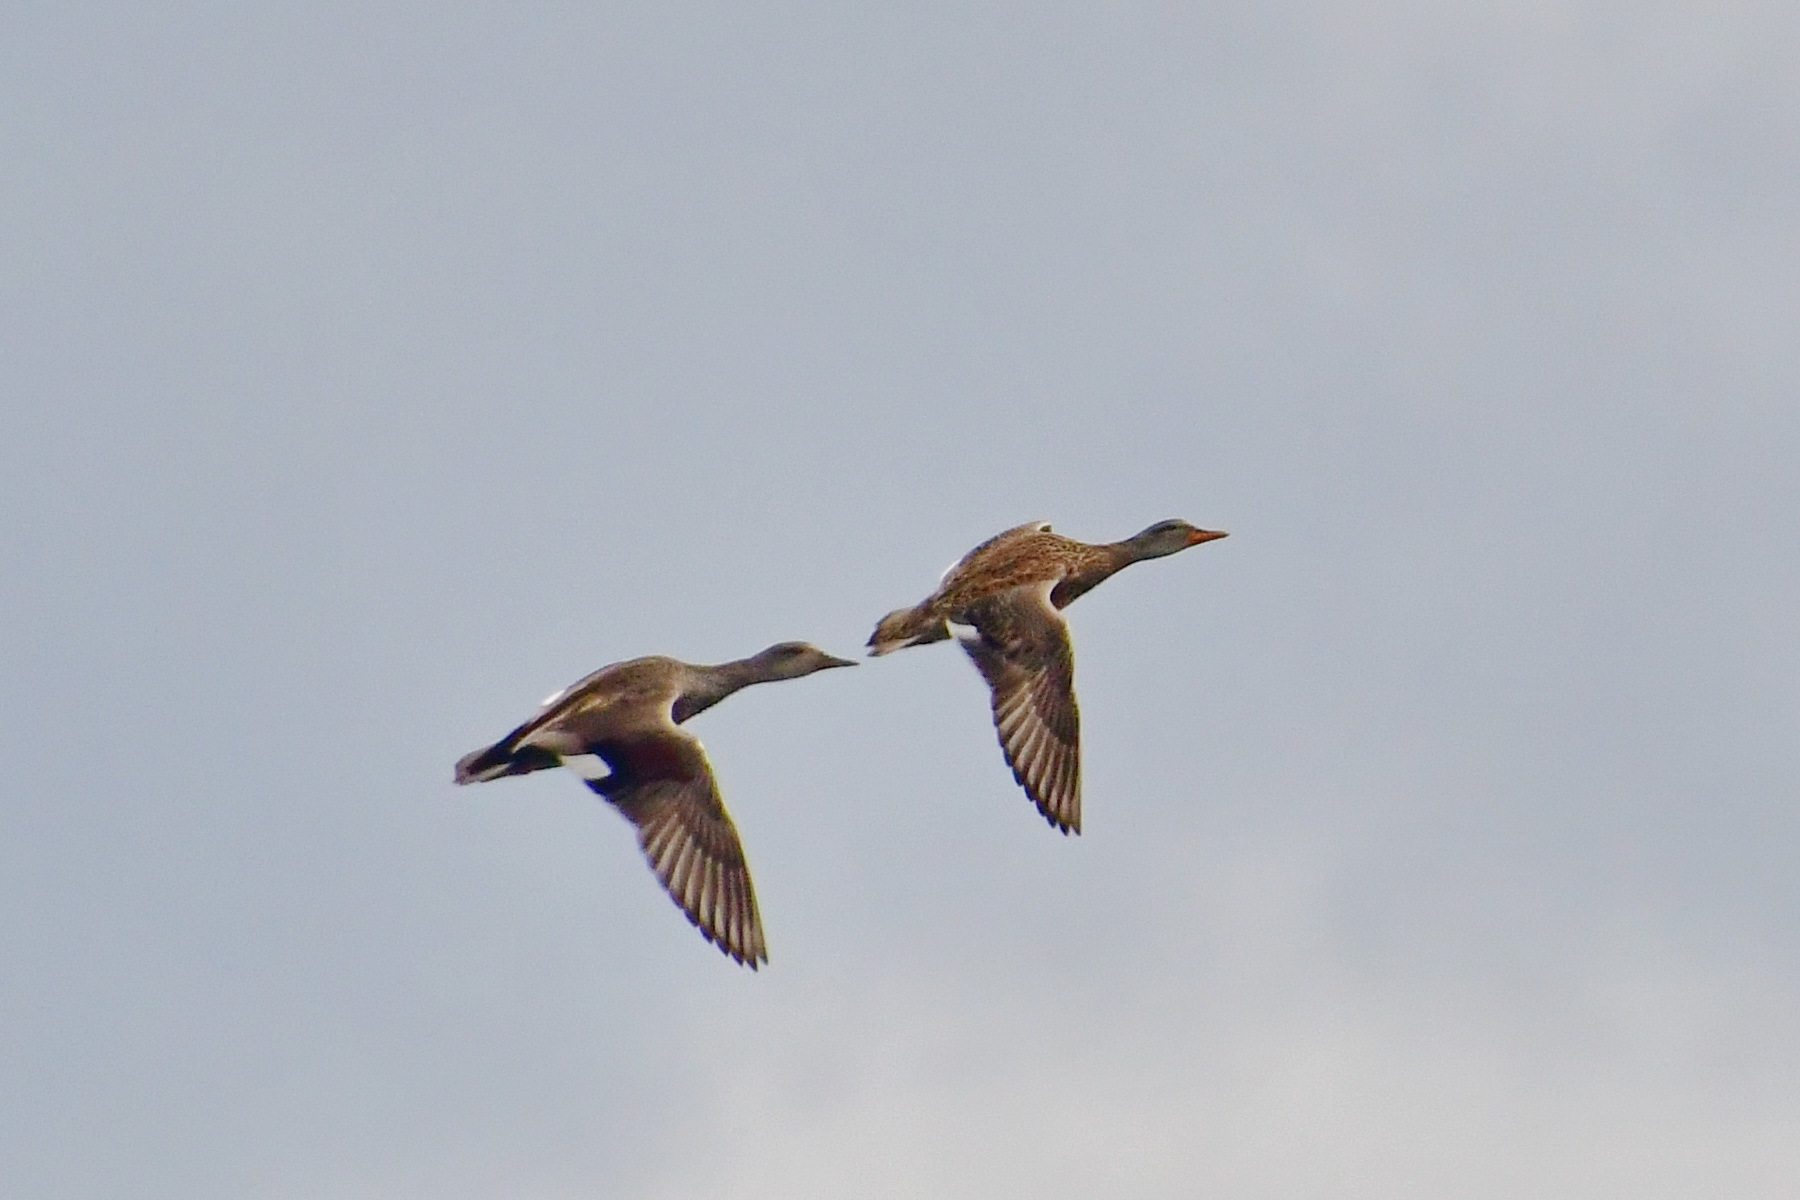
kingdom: Animalia
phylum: Chordata
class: Aves
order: Anseriformes
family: Anatidae
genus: Mareca
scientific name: Mareca strepera
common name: Gadwall
